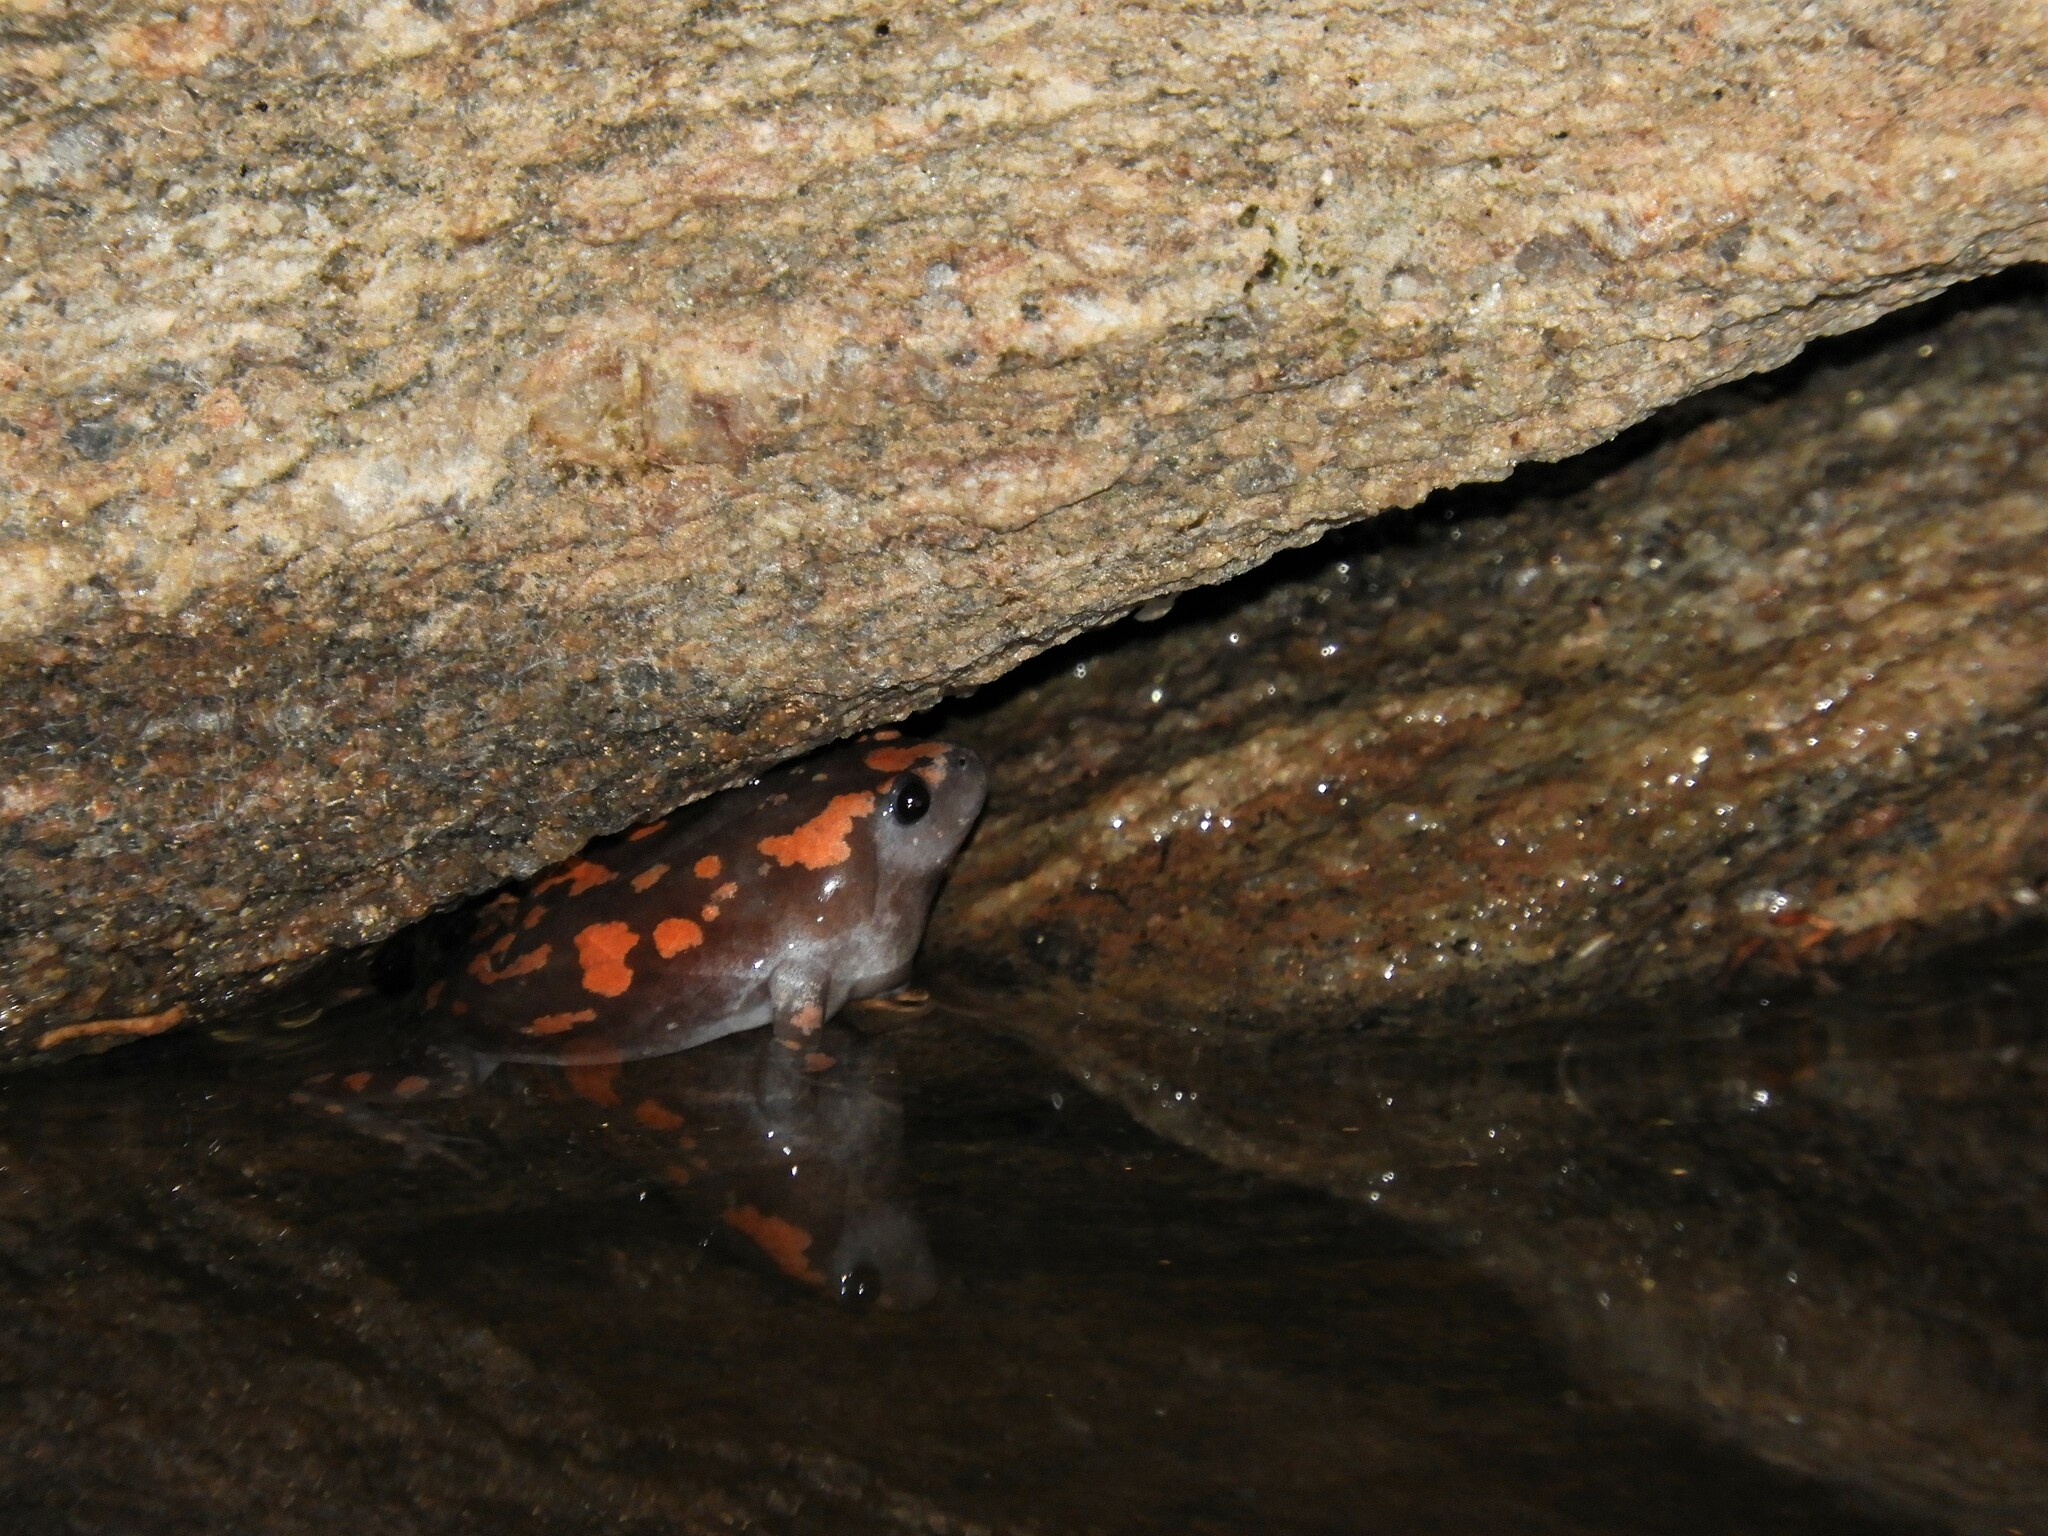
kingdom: Animalia
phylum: Chordata
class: Amphibia
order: Anura
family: Microhylidae
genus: Phrynomantis
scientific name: Phrynomantis annectens
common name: Marbled rubber frog
